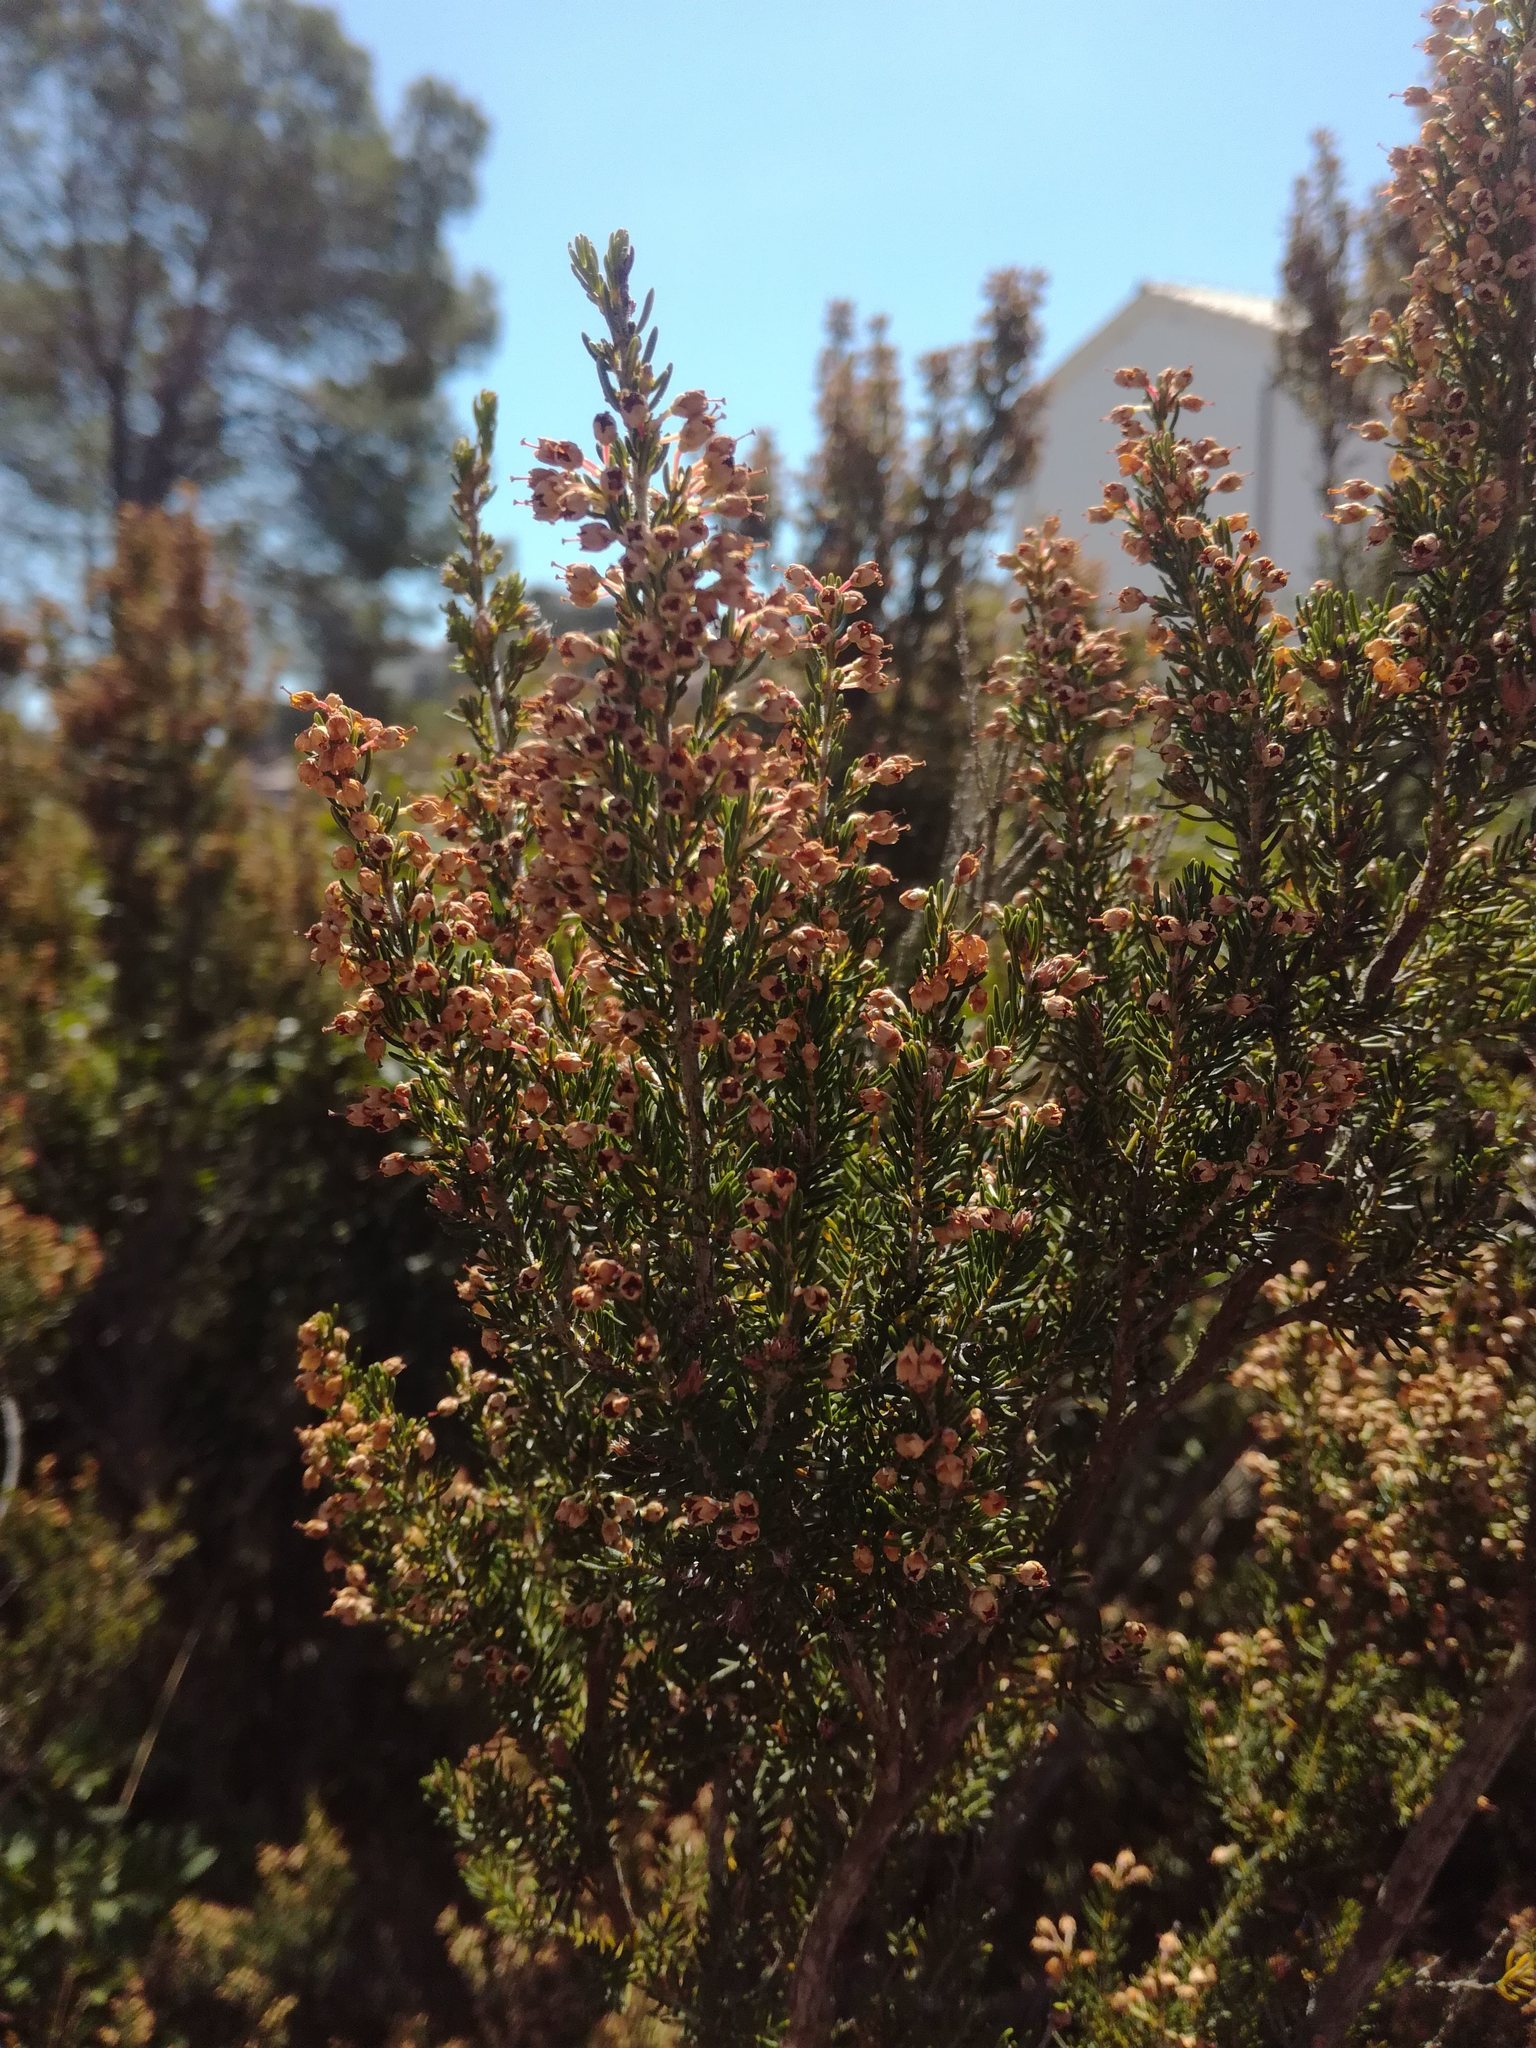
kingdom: Plantae
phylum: Tracheophyta
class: Magnoliopsida
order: Ericales
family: Ericaceae
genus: Erica
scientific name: Erica arborea
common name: Tree heath
